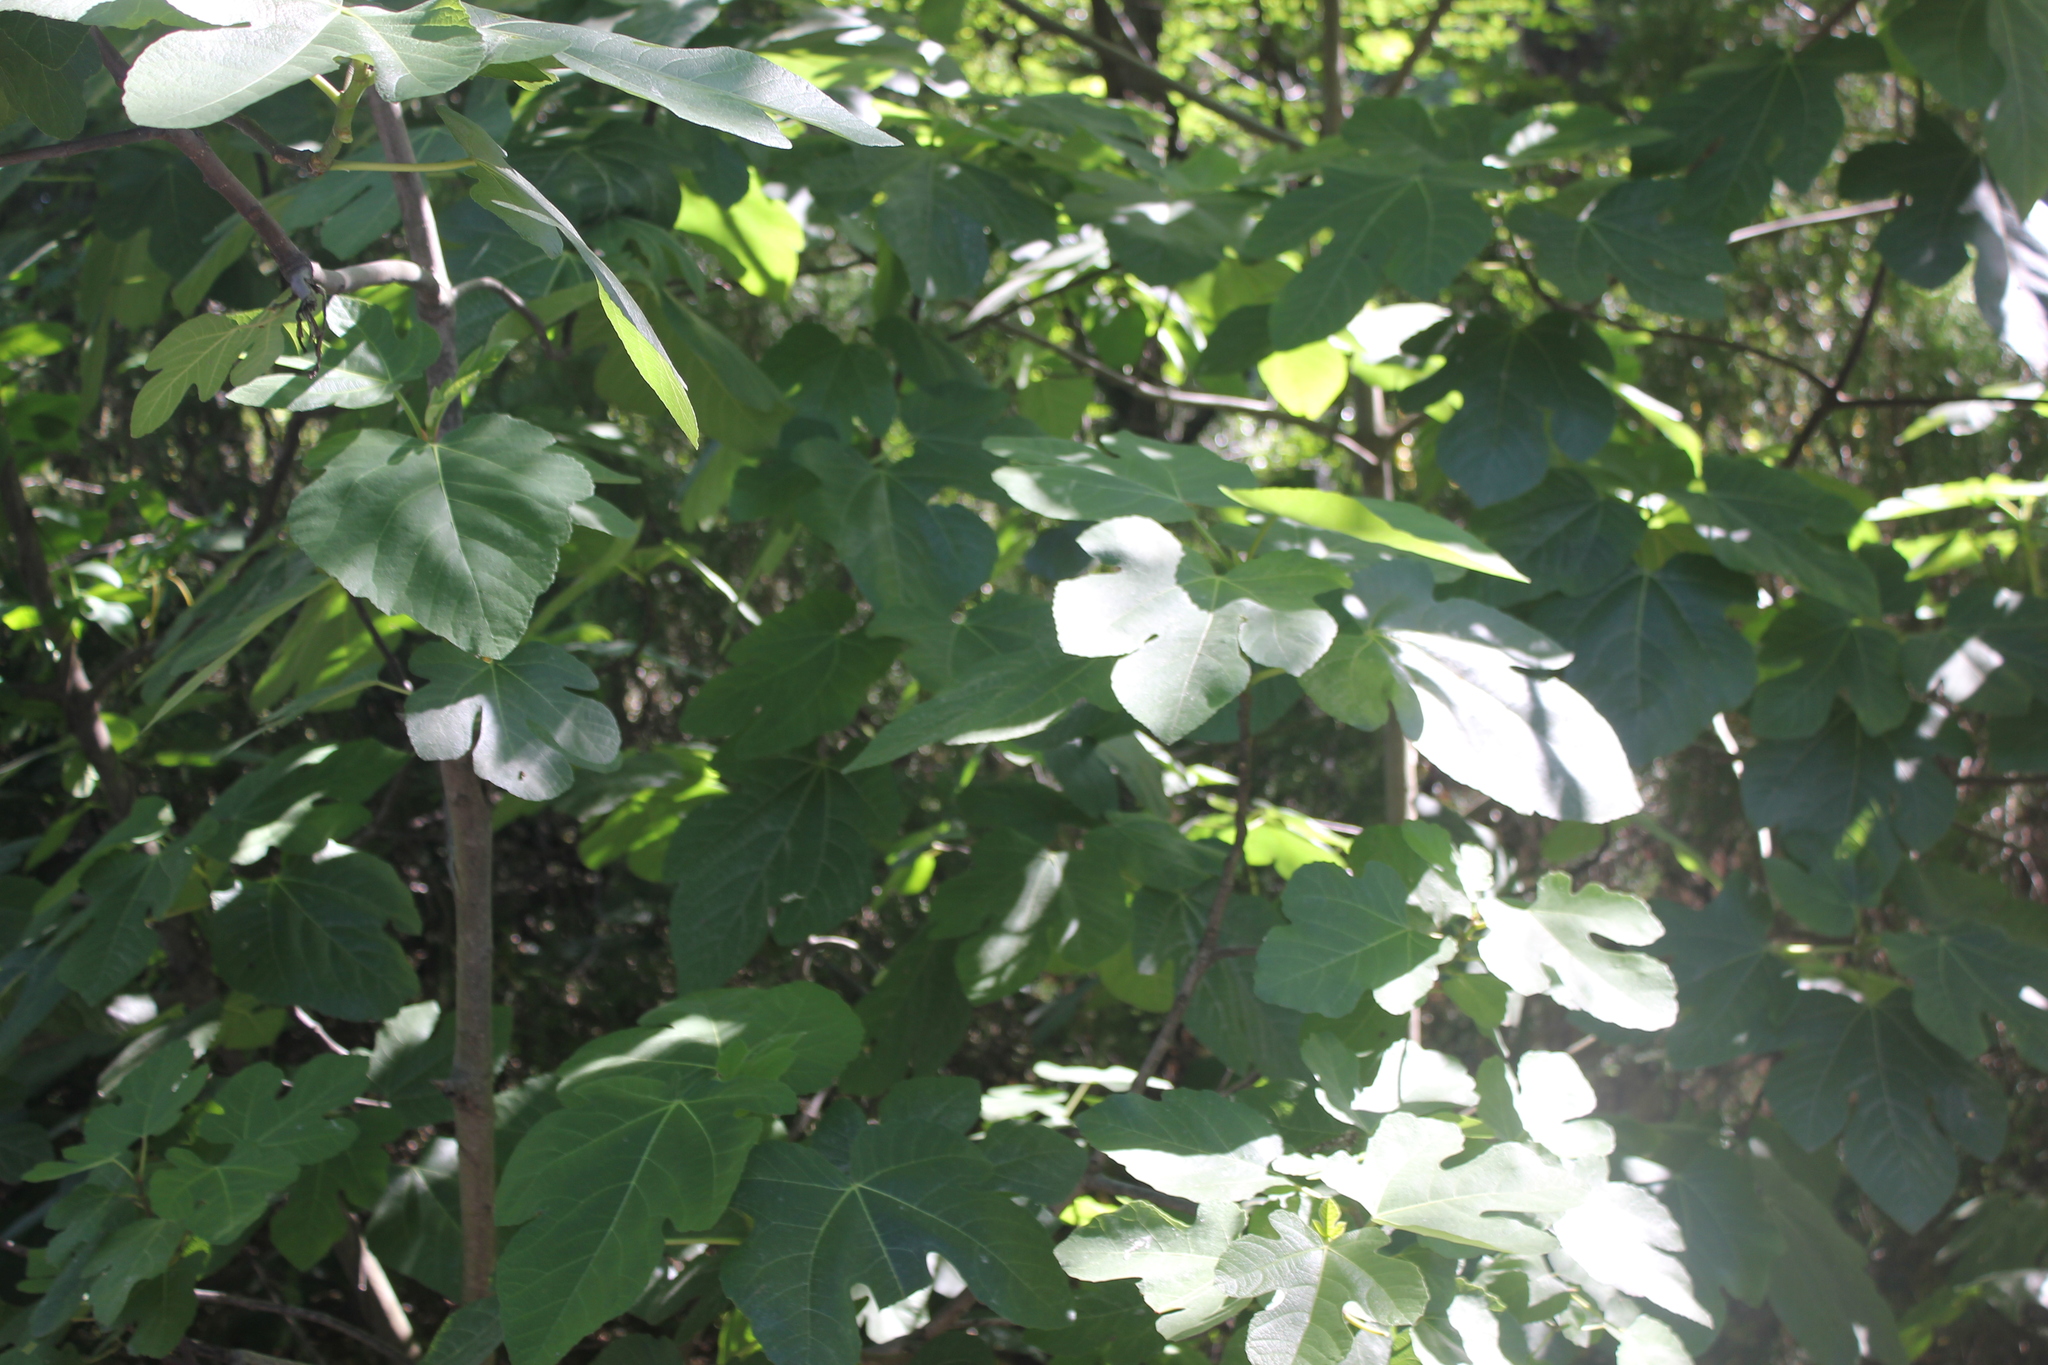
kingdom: Plantae
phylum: Tracheophyta
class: Magnoliopsida
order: Rosales
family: Moraceae
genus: Ficus
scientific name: Ficus carica
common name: Fig
